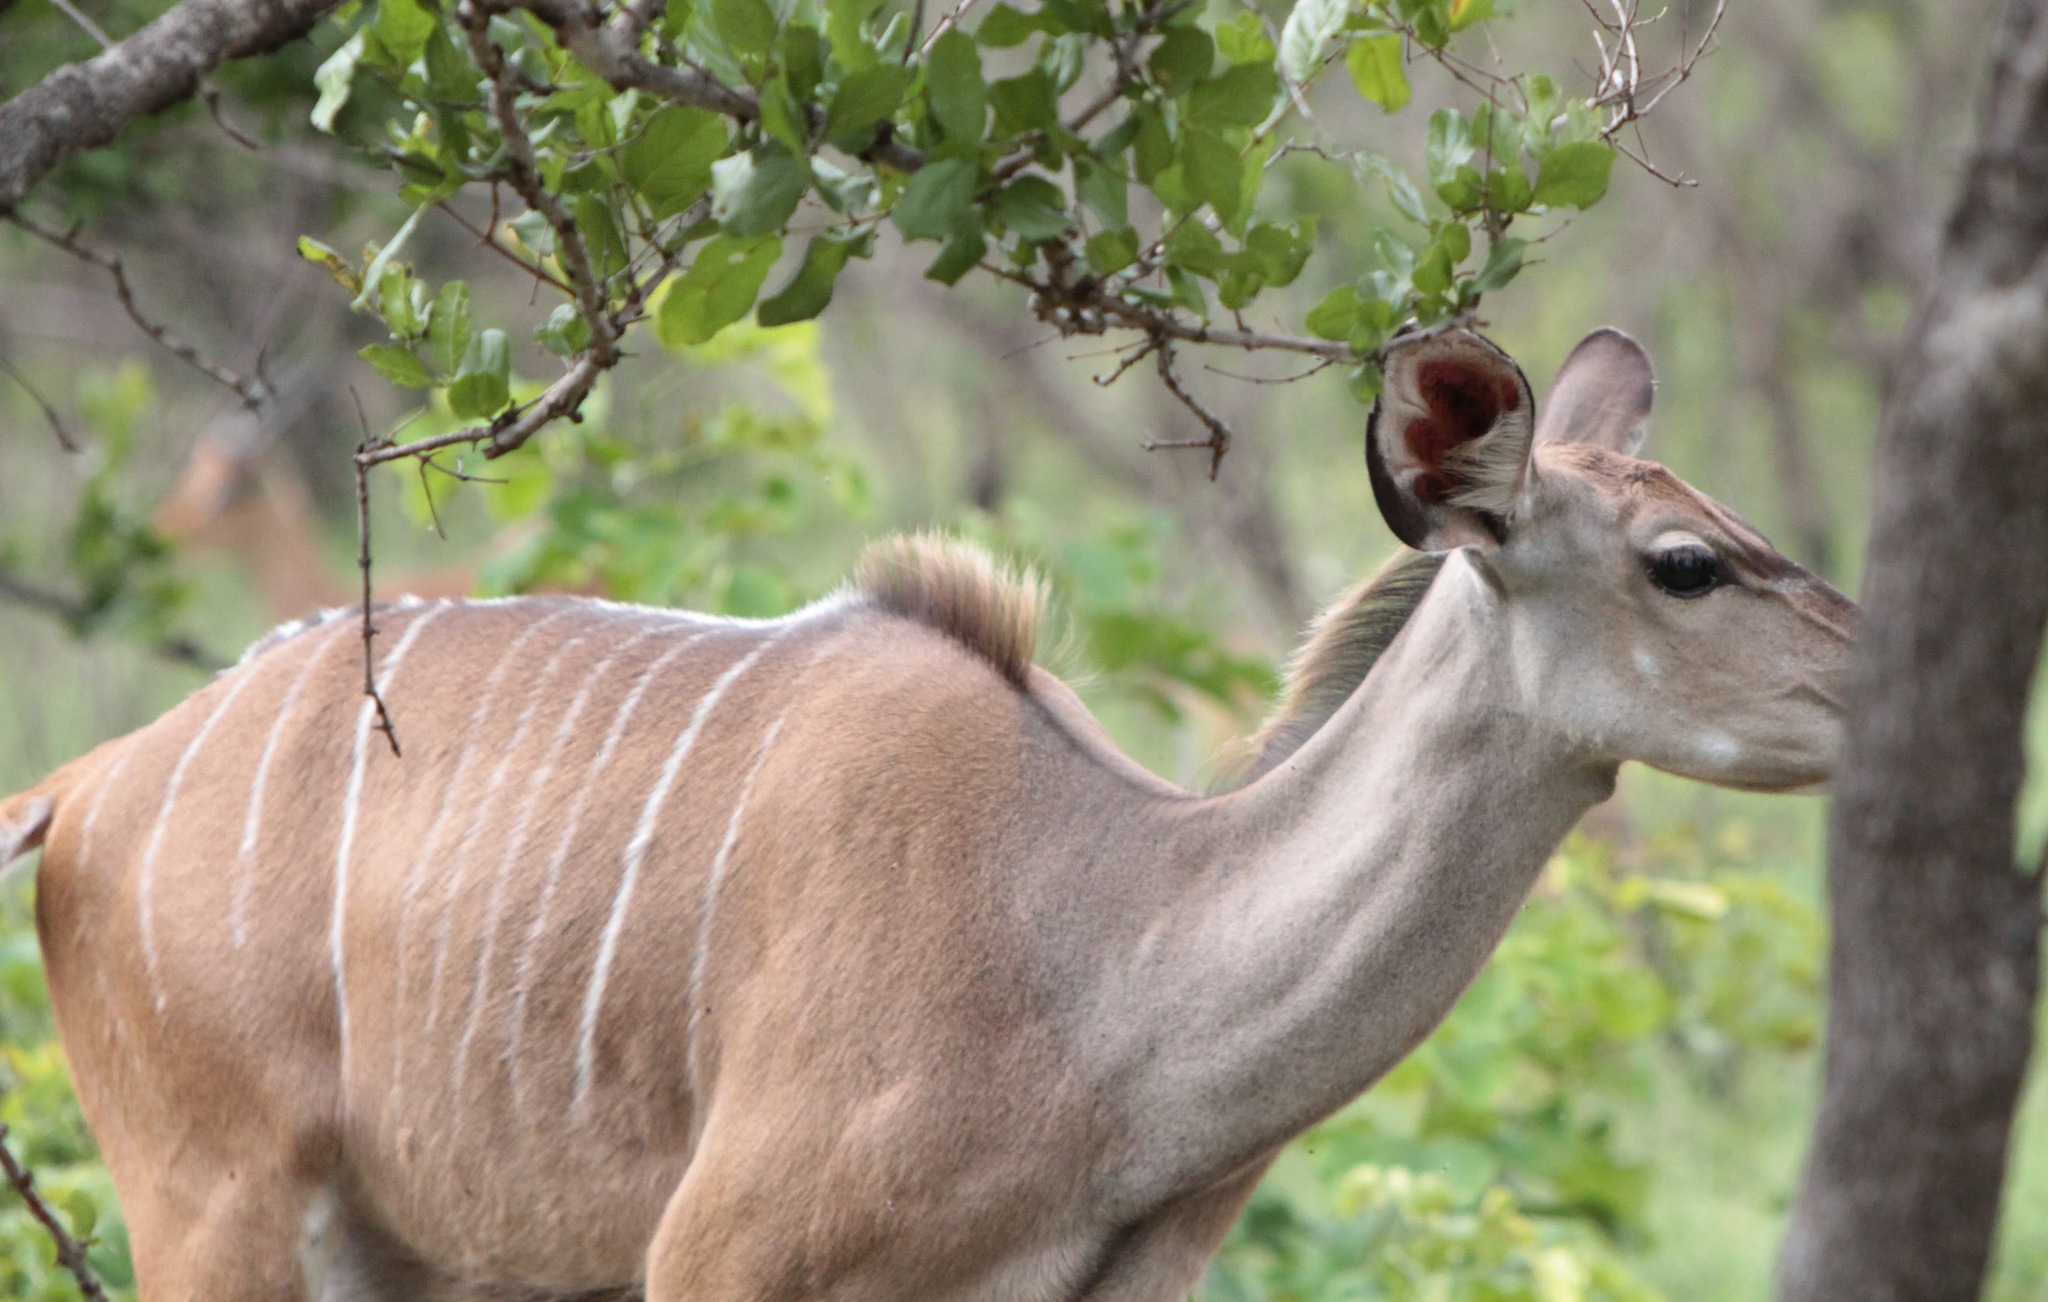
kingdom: Animalia
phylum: Chordata
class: Mammalia
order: Artiodactyla
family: Bovidae
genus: Tragelaphus
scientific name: Tragelaphus strepsiceros
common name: Greater kudu
